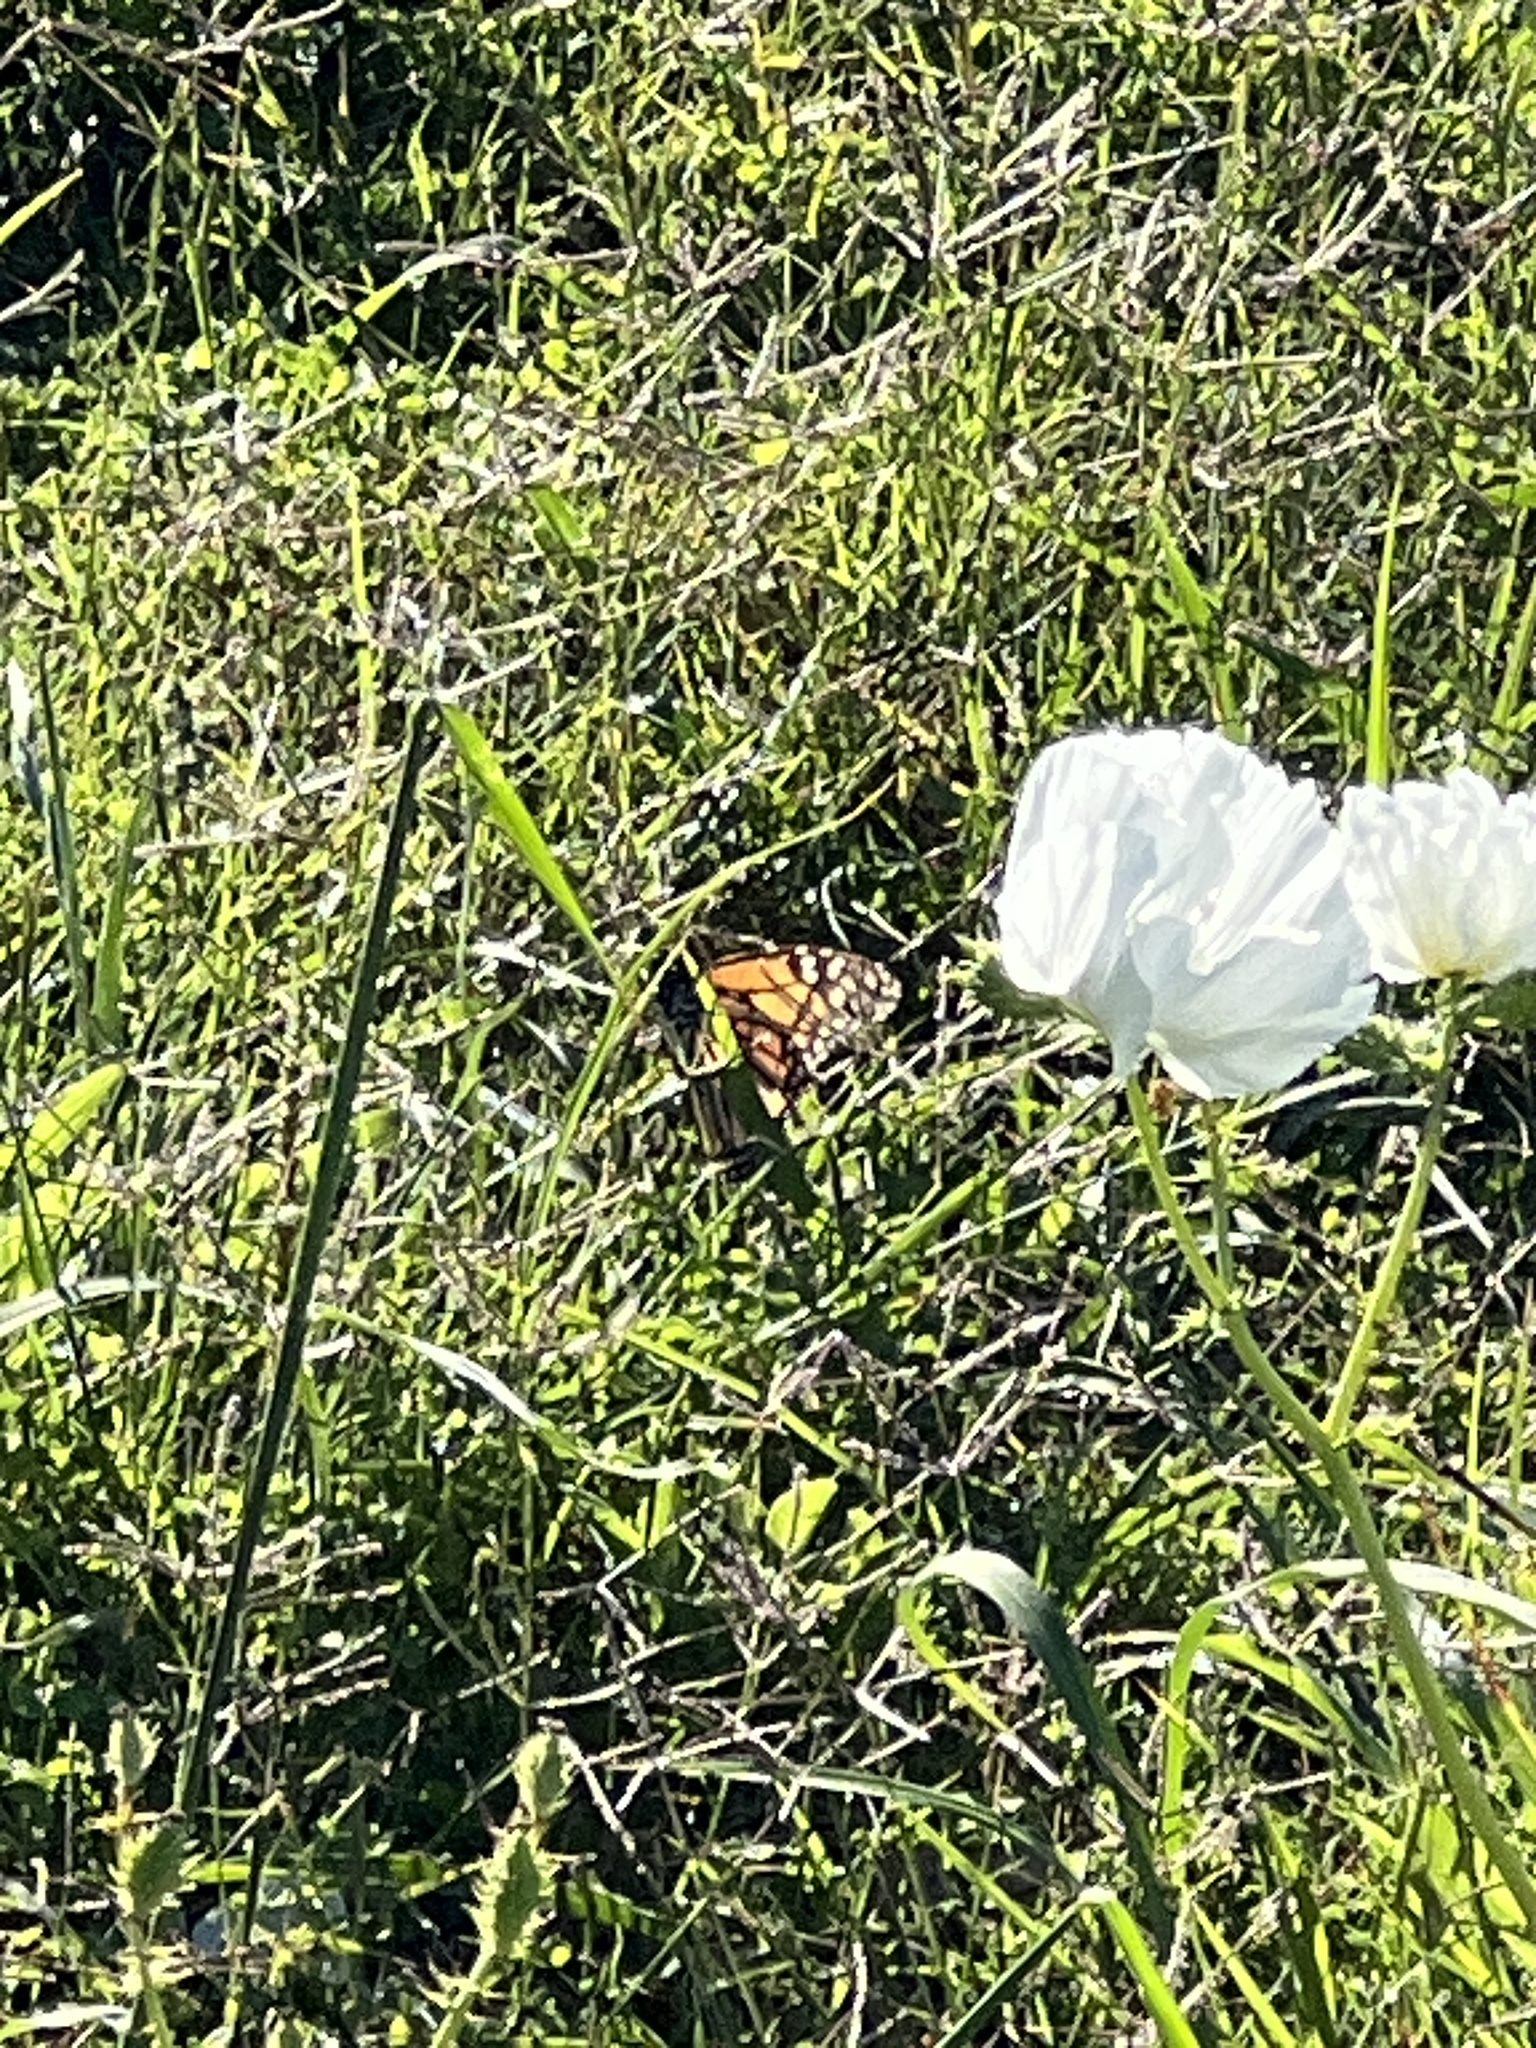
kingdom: Animalia
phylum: Arthropoda
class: Insecta
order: Lepidoptera
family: Nymphalidae
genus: Danaus
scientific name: Danaus plexippus
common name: Monarch
